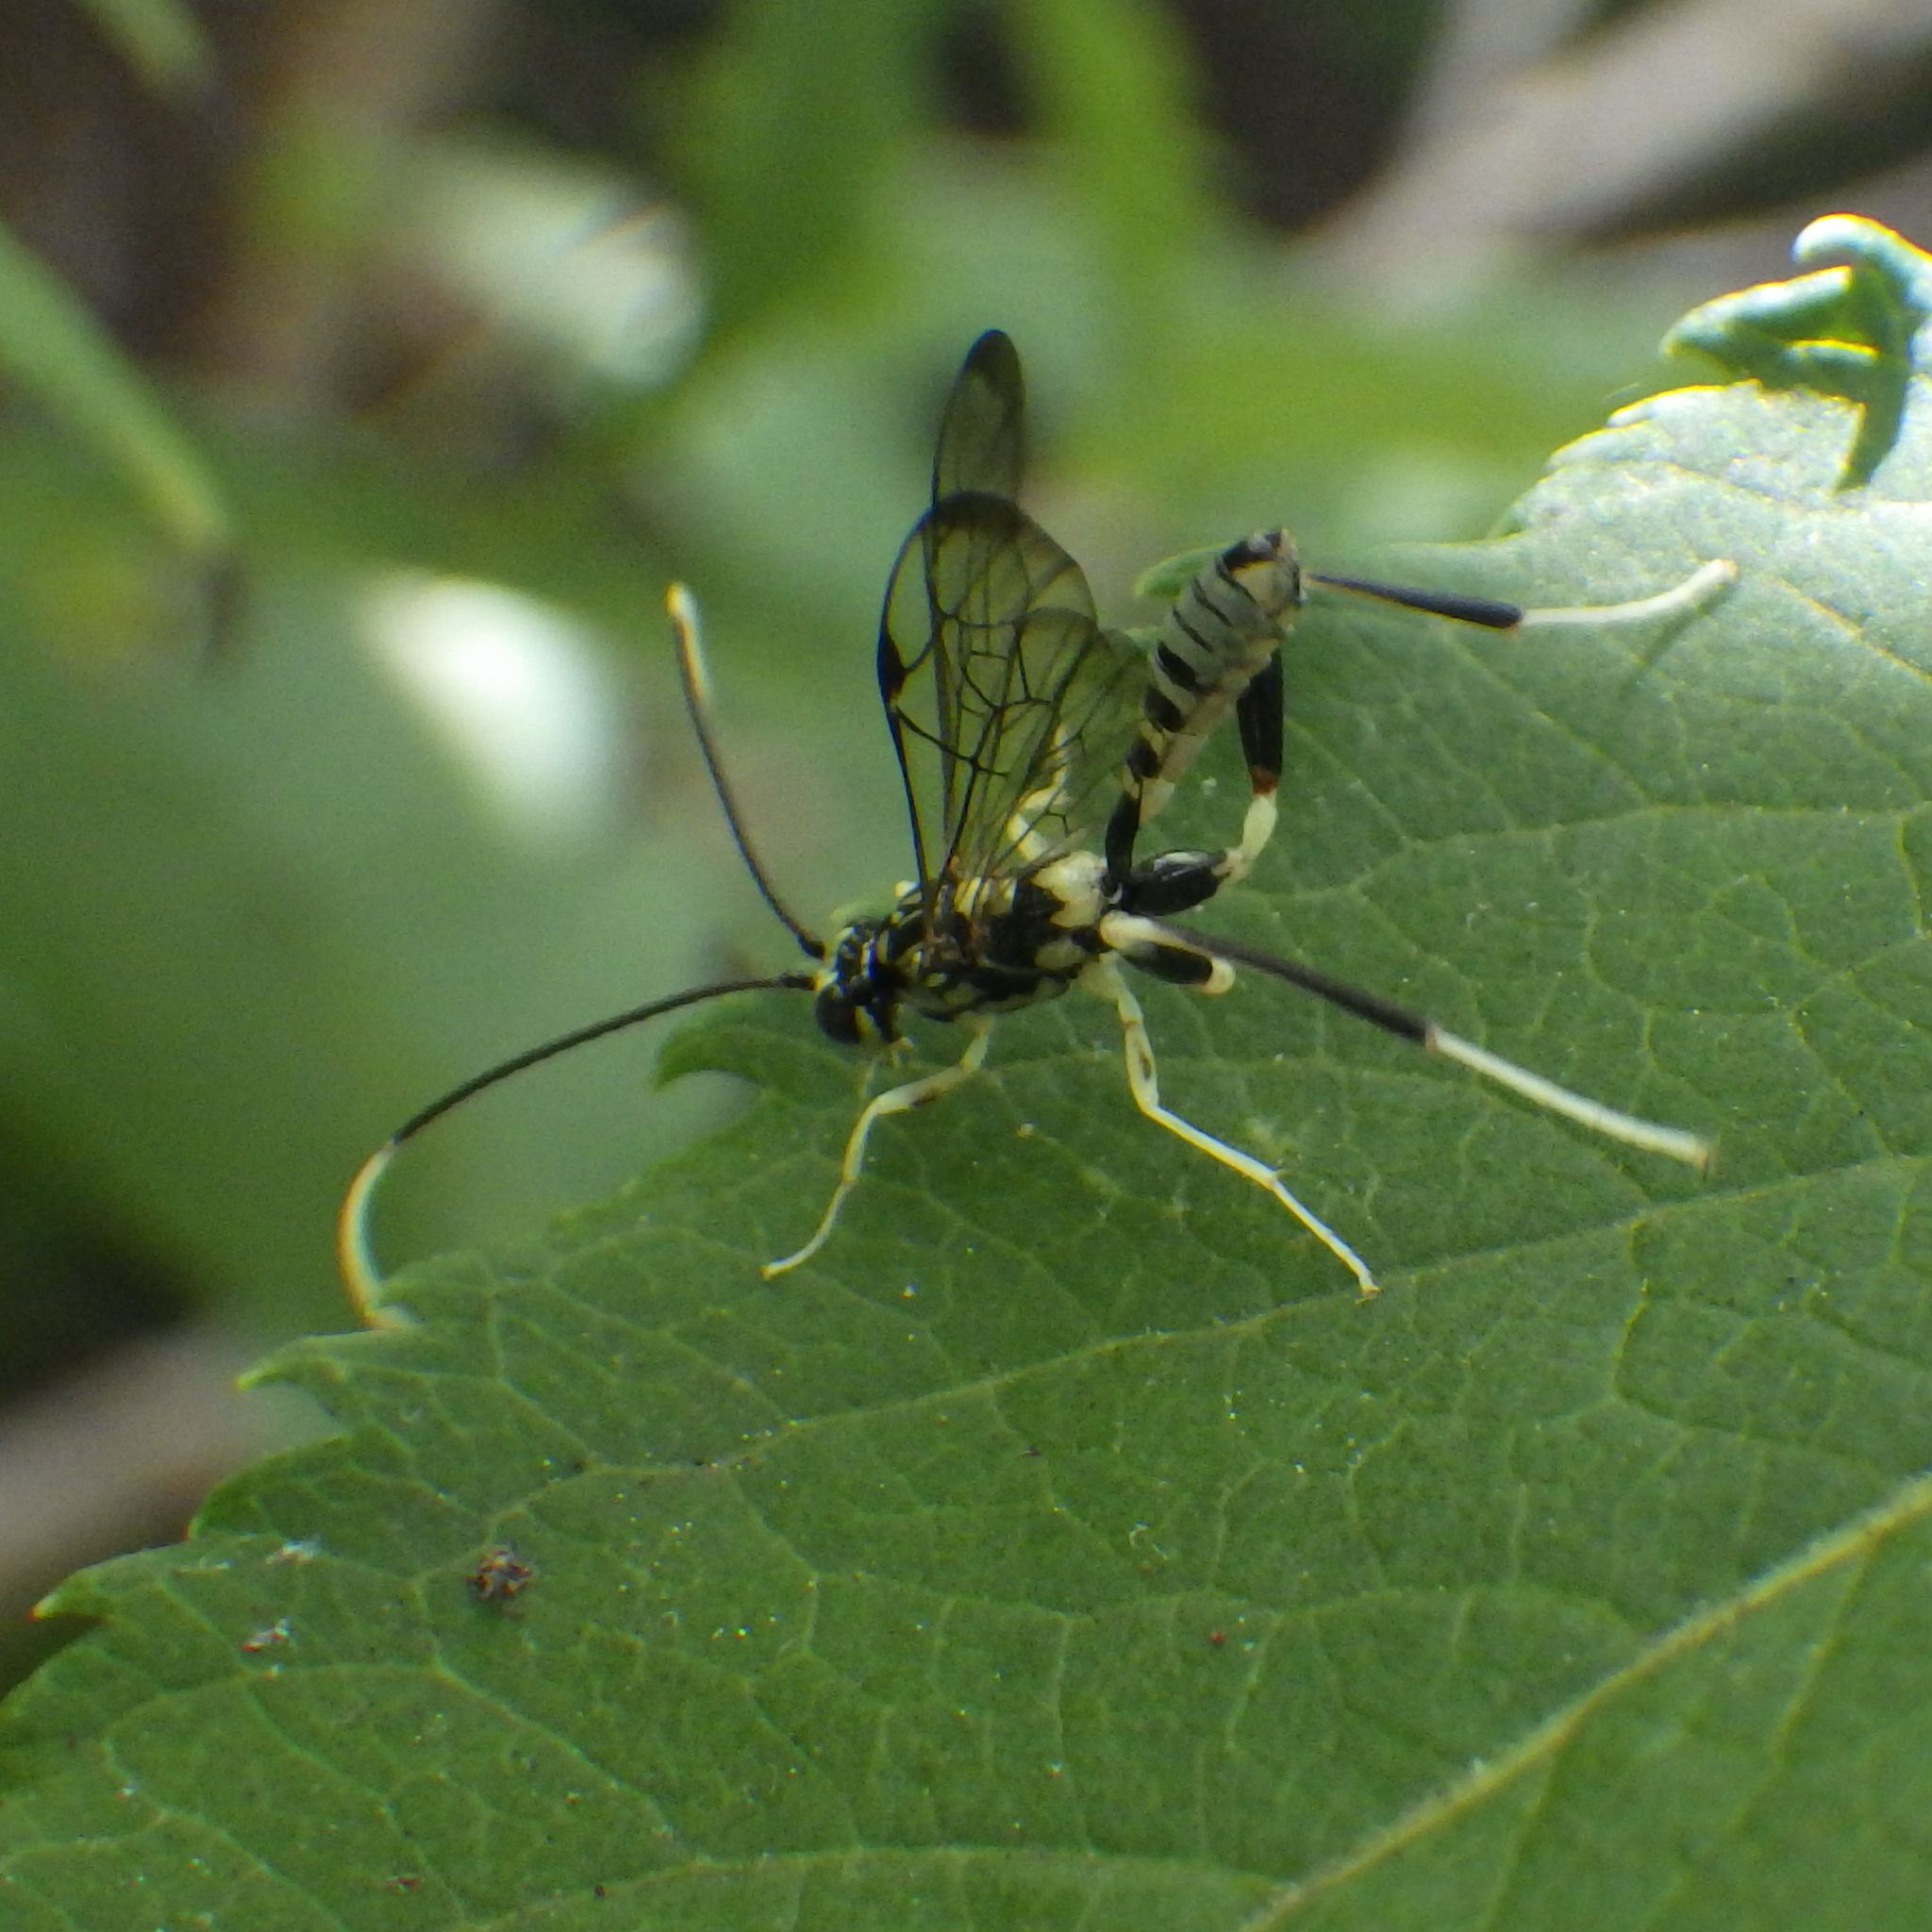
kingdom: Animalia
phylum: Arthropoda
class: Insecta
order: Hymenoptera
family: Ichneumonidae
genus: Arotes
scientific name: Arotes amoenus
